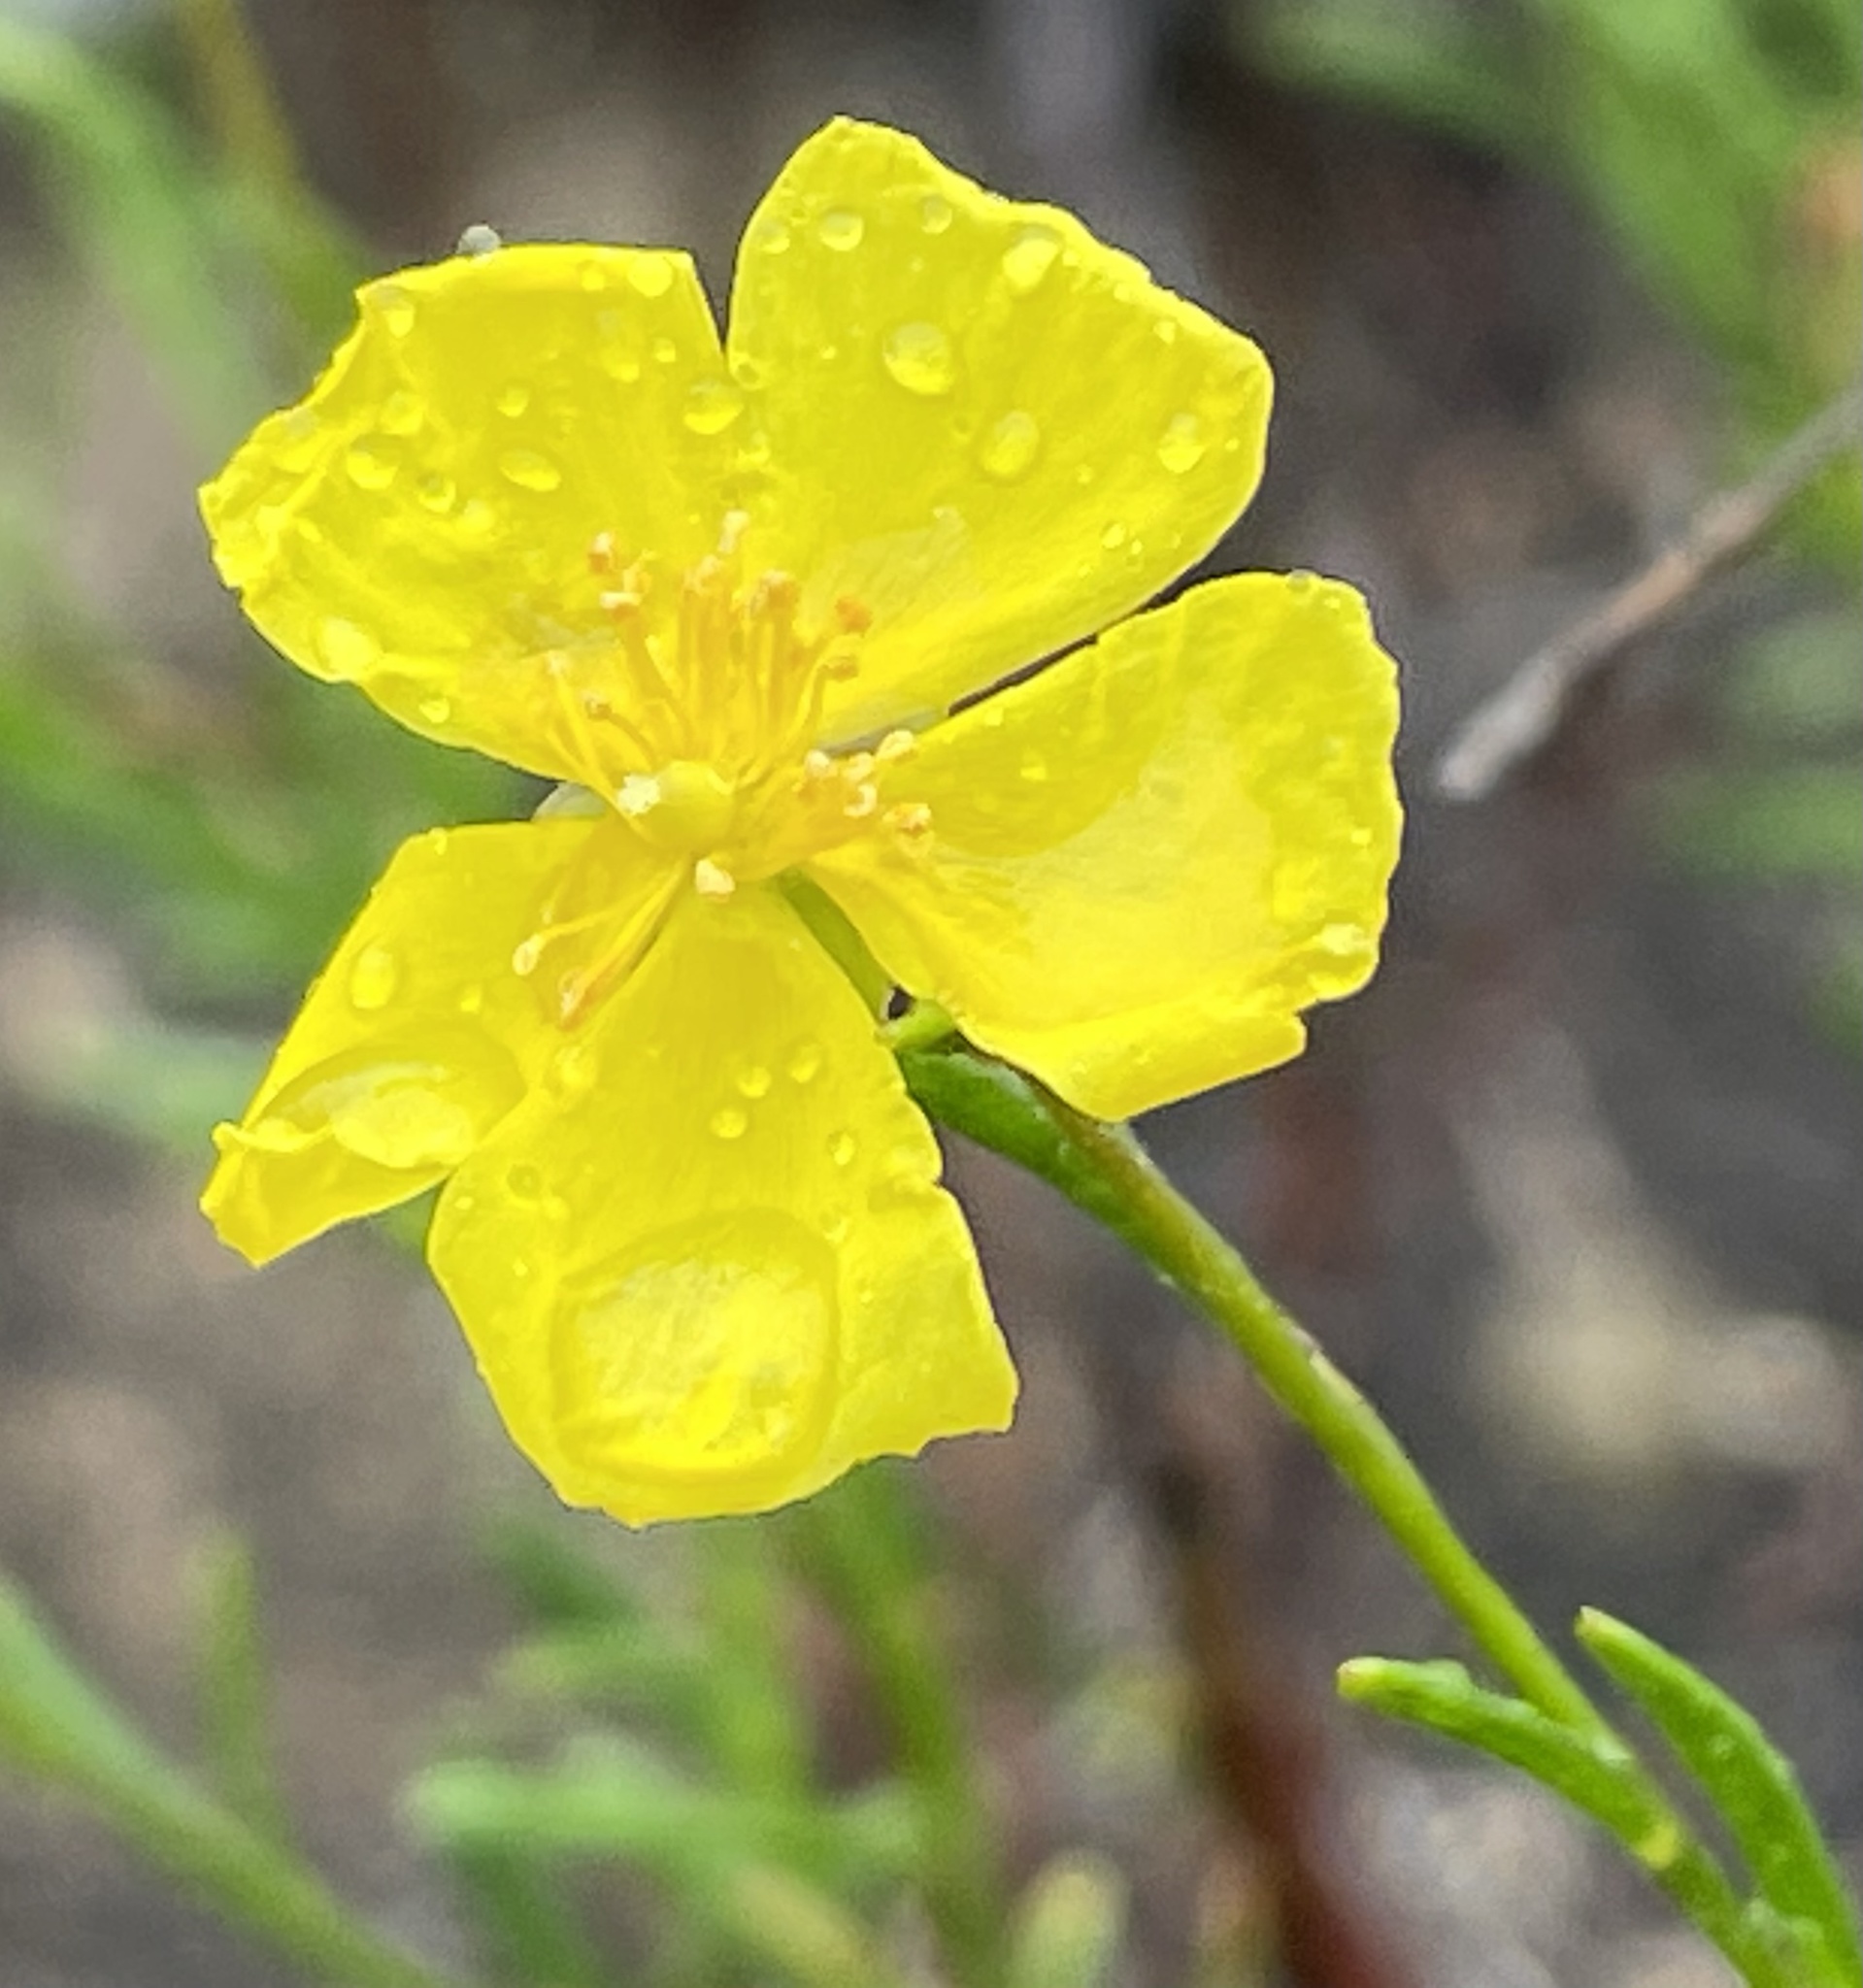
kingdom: Plantae
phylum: Tracheophyta
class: Magnoliopsida
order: Malvales
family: Cistaceae
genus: Crocanthemum
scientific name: Crocanthemum aldersonii
